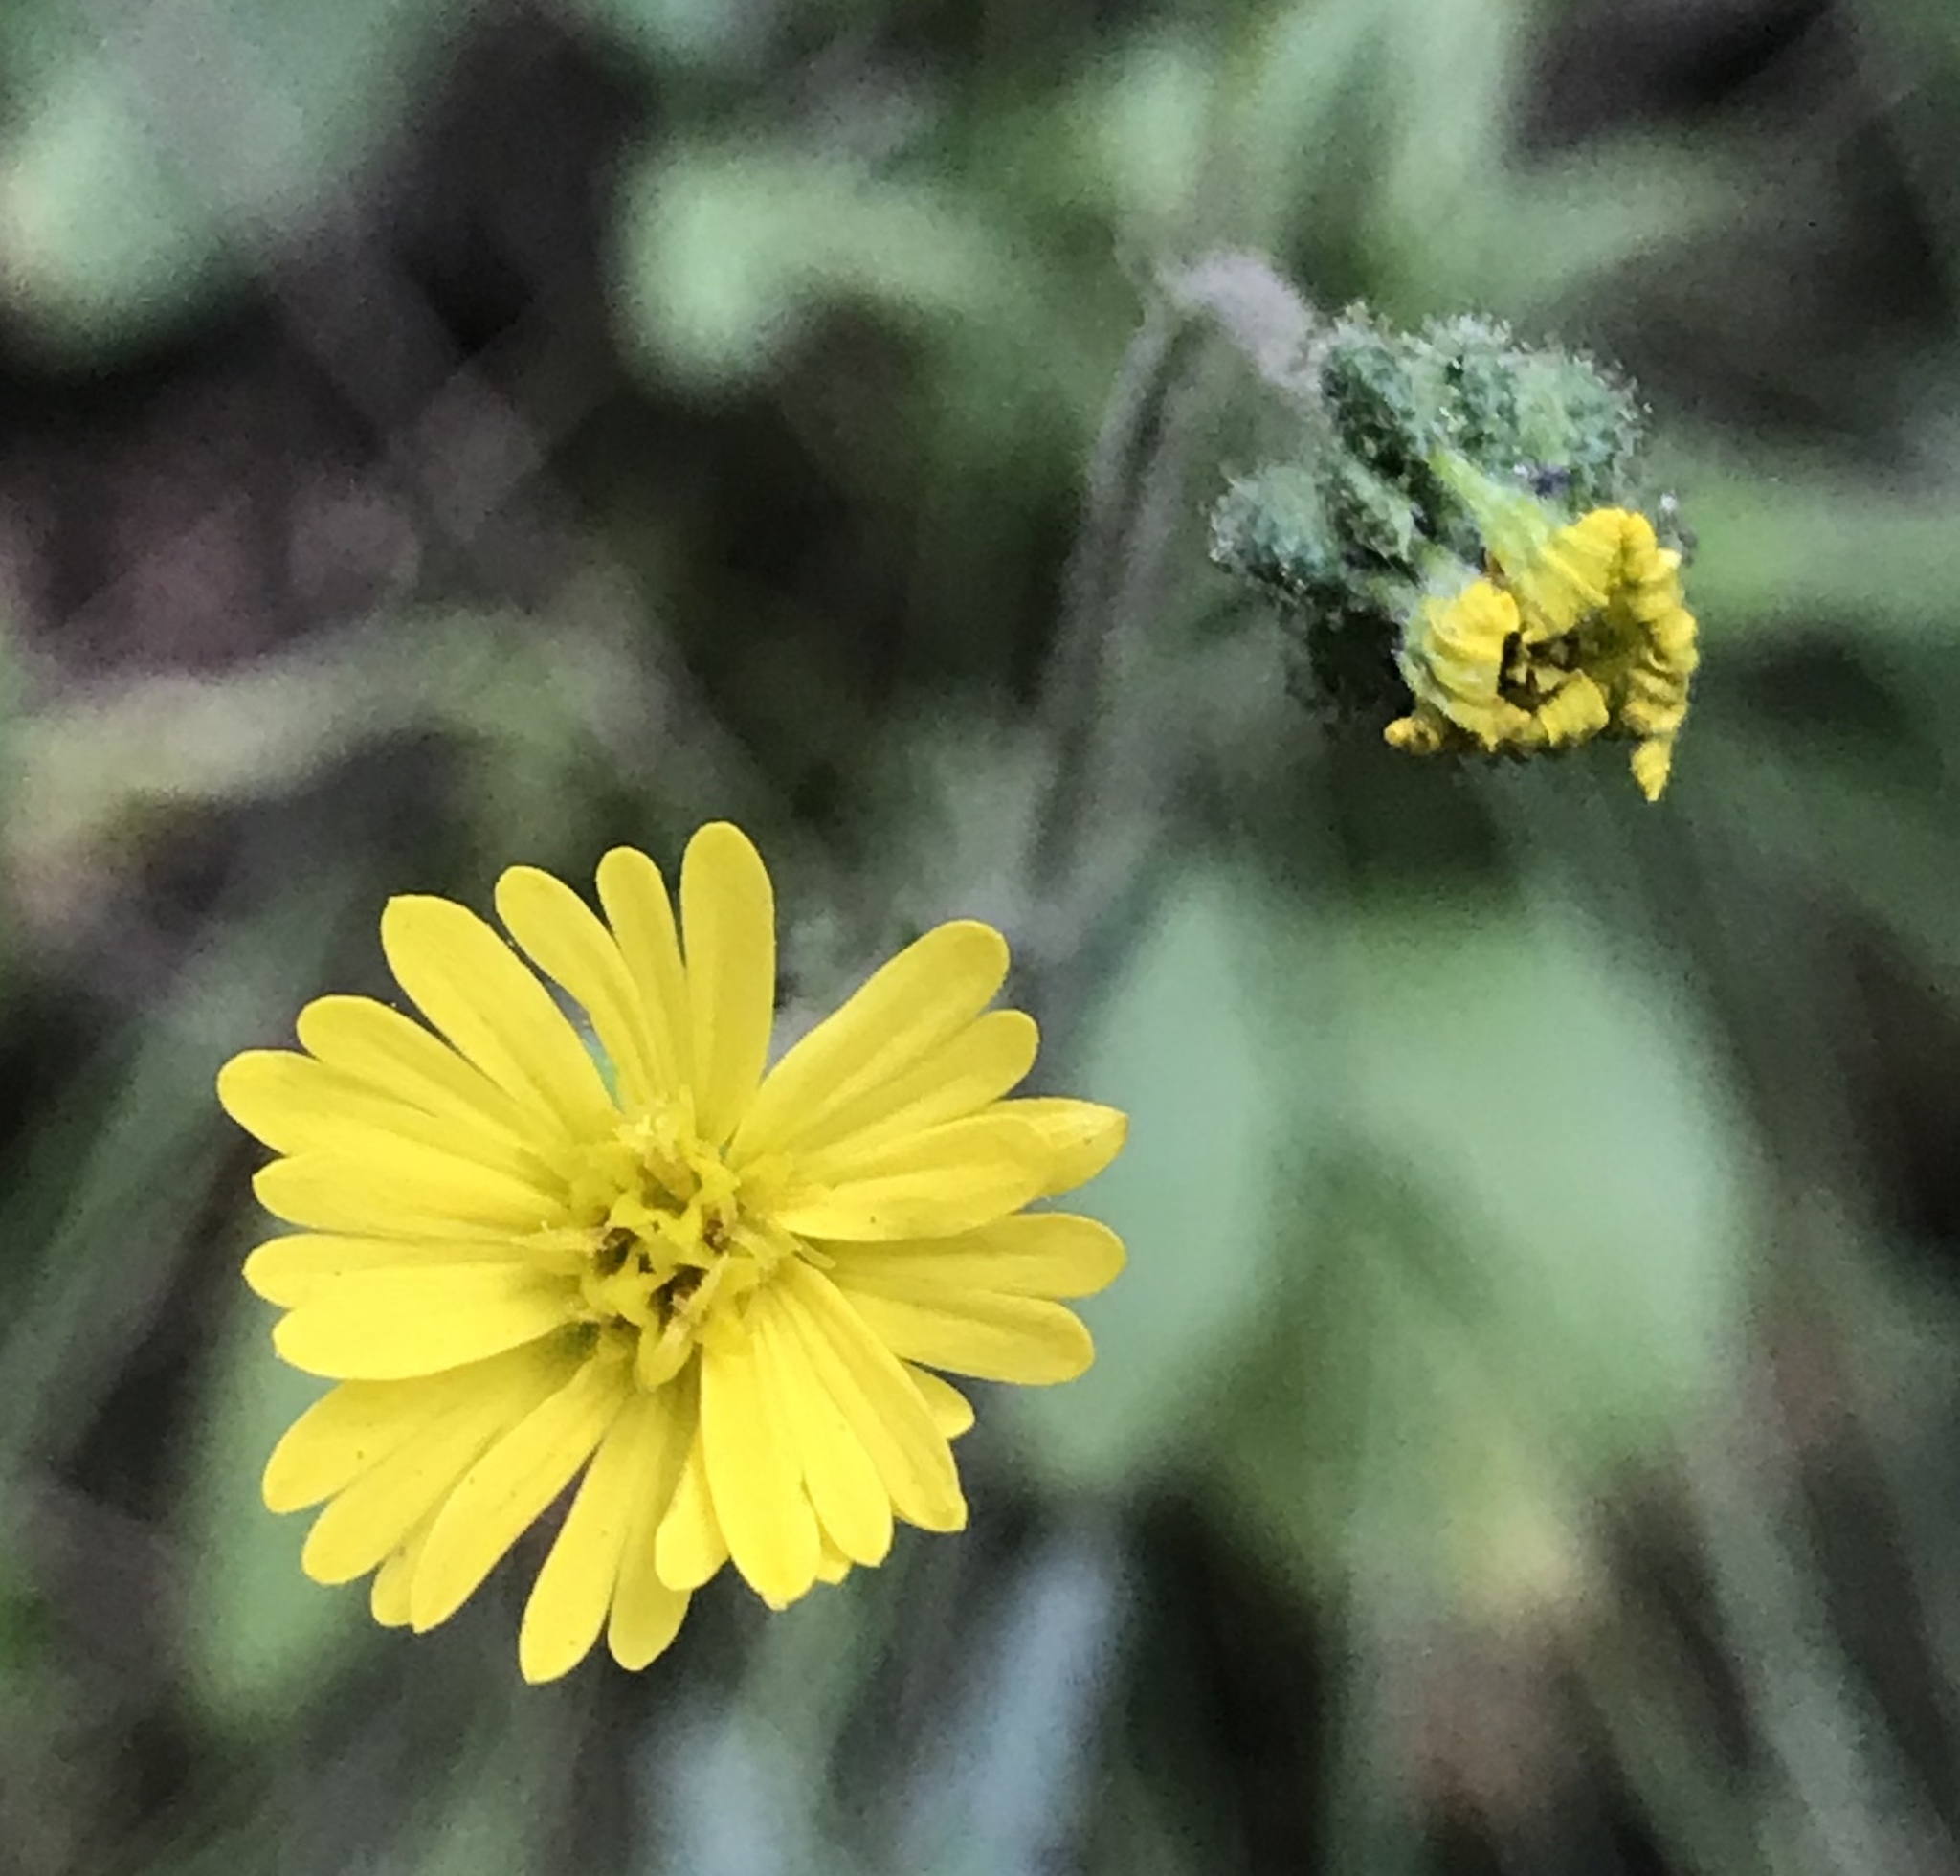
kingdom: Plantae
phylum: Tracheophyta
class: Magnoliopsida
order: Asterales
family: Asteraceae
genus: Anisocarpus
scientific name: Anisocarpus madioides
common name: Woodland madia
